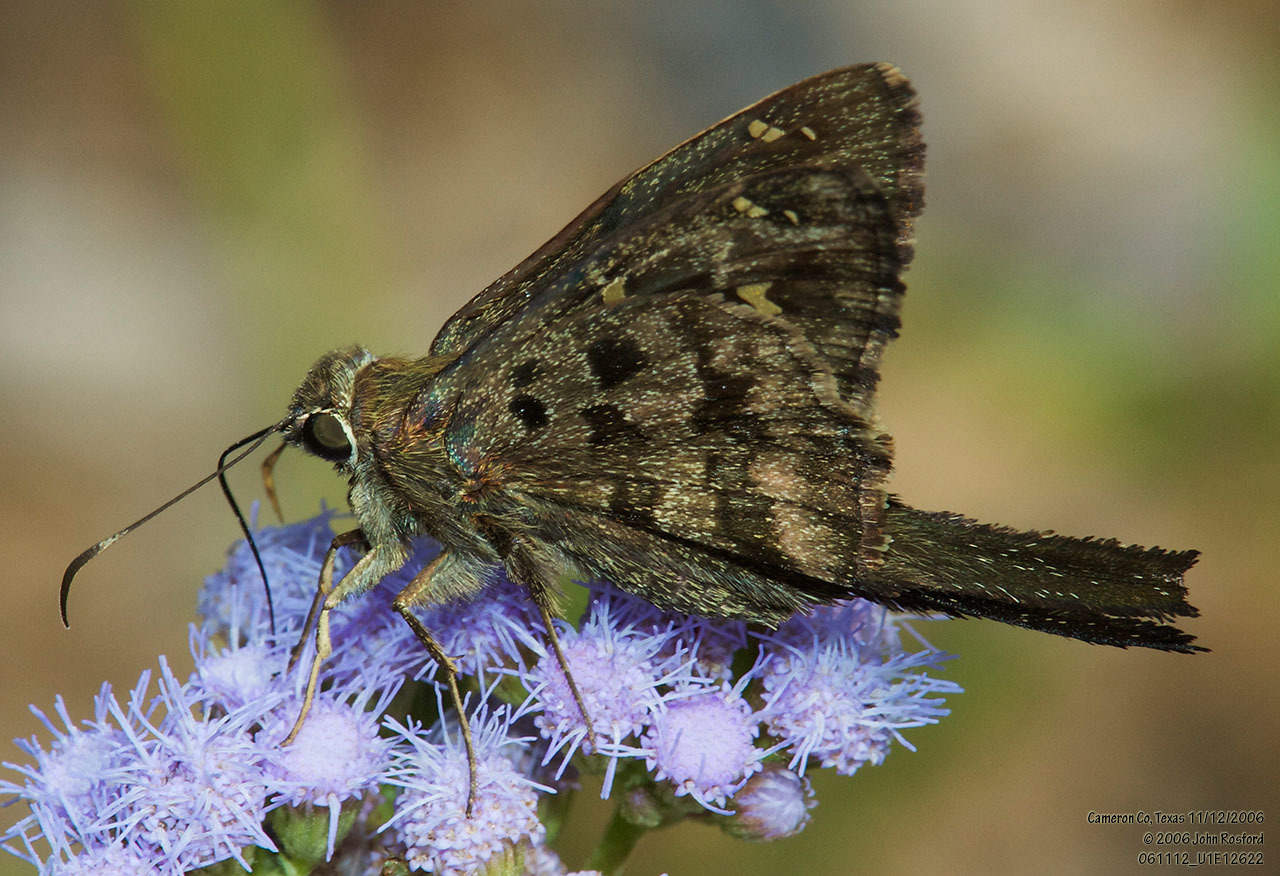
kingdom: Animalia
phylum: Arthropoda
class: Insecta
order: Lepidoptera
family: Hesperiidae
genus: Thorybes
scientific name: Thorybes
